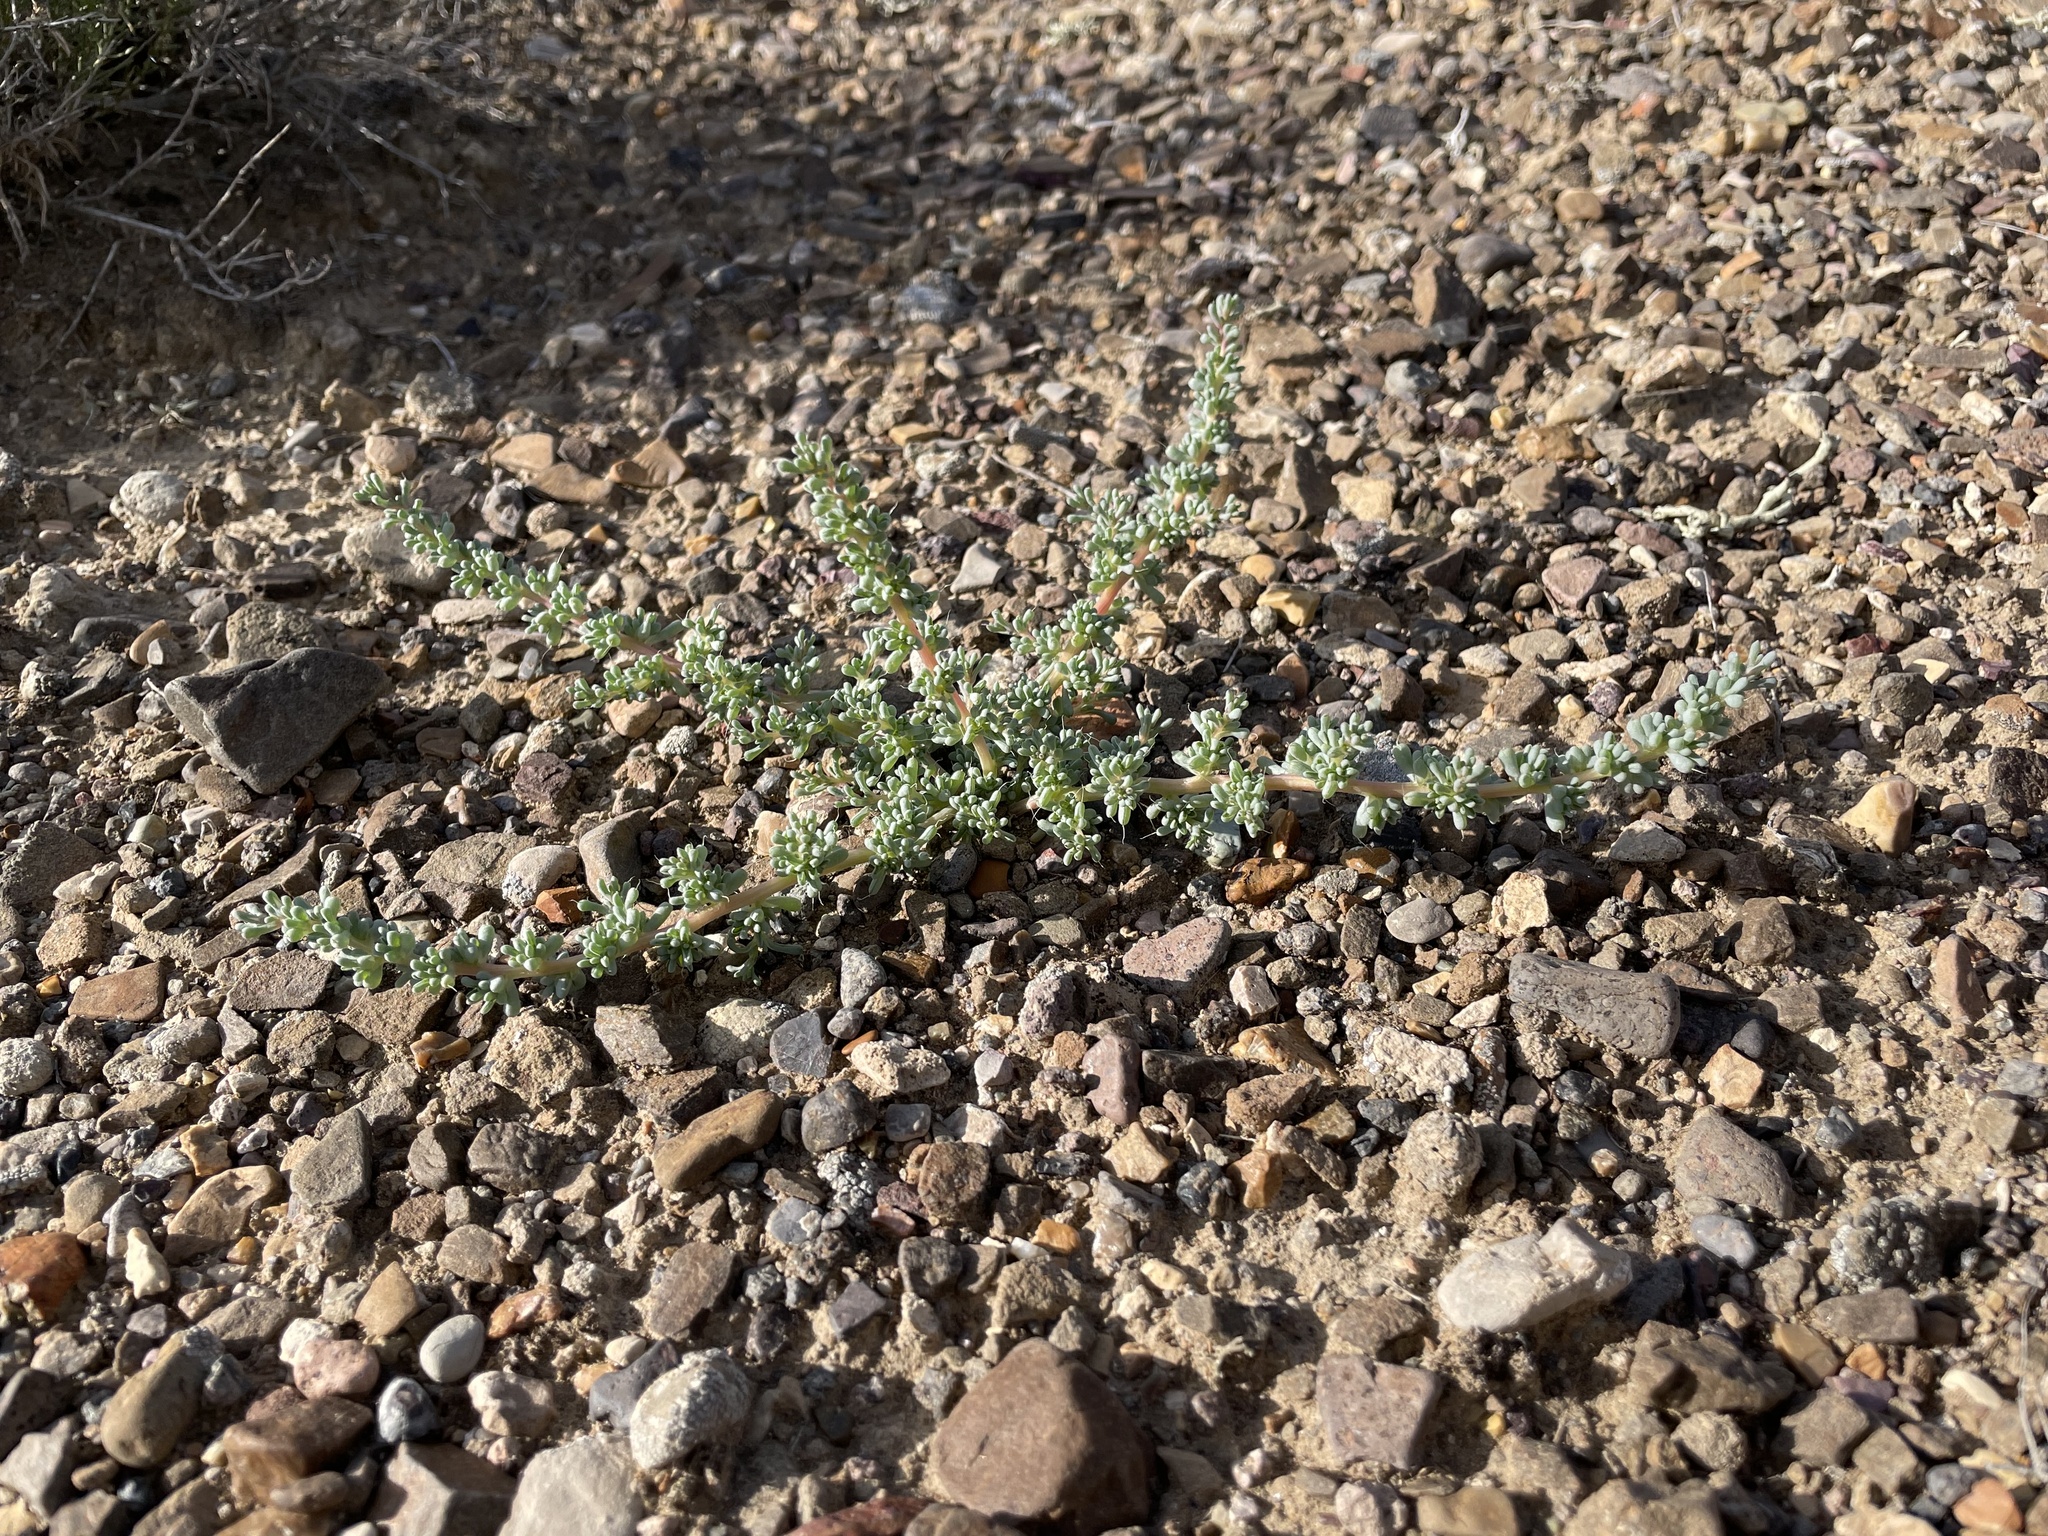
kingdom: Plantae
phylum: Tracheophyta
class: Magnoliopsida
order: Caryophyllales
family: Amaranthaceae
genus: Halogeton
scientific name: Halogeton glomeratus
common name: Saltlover
